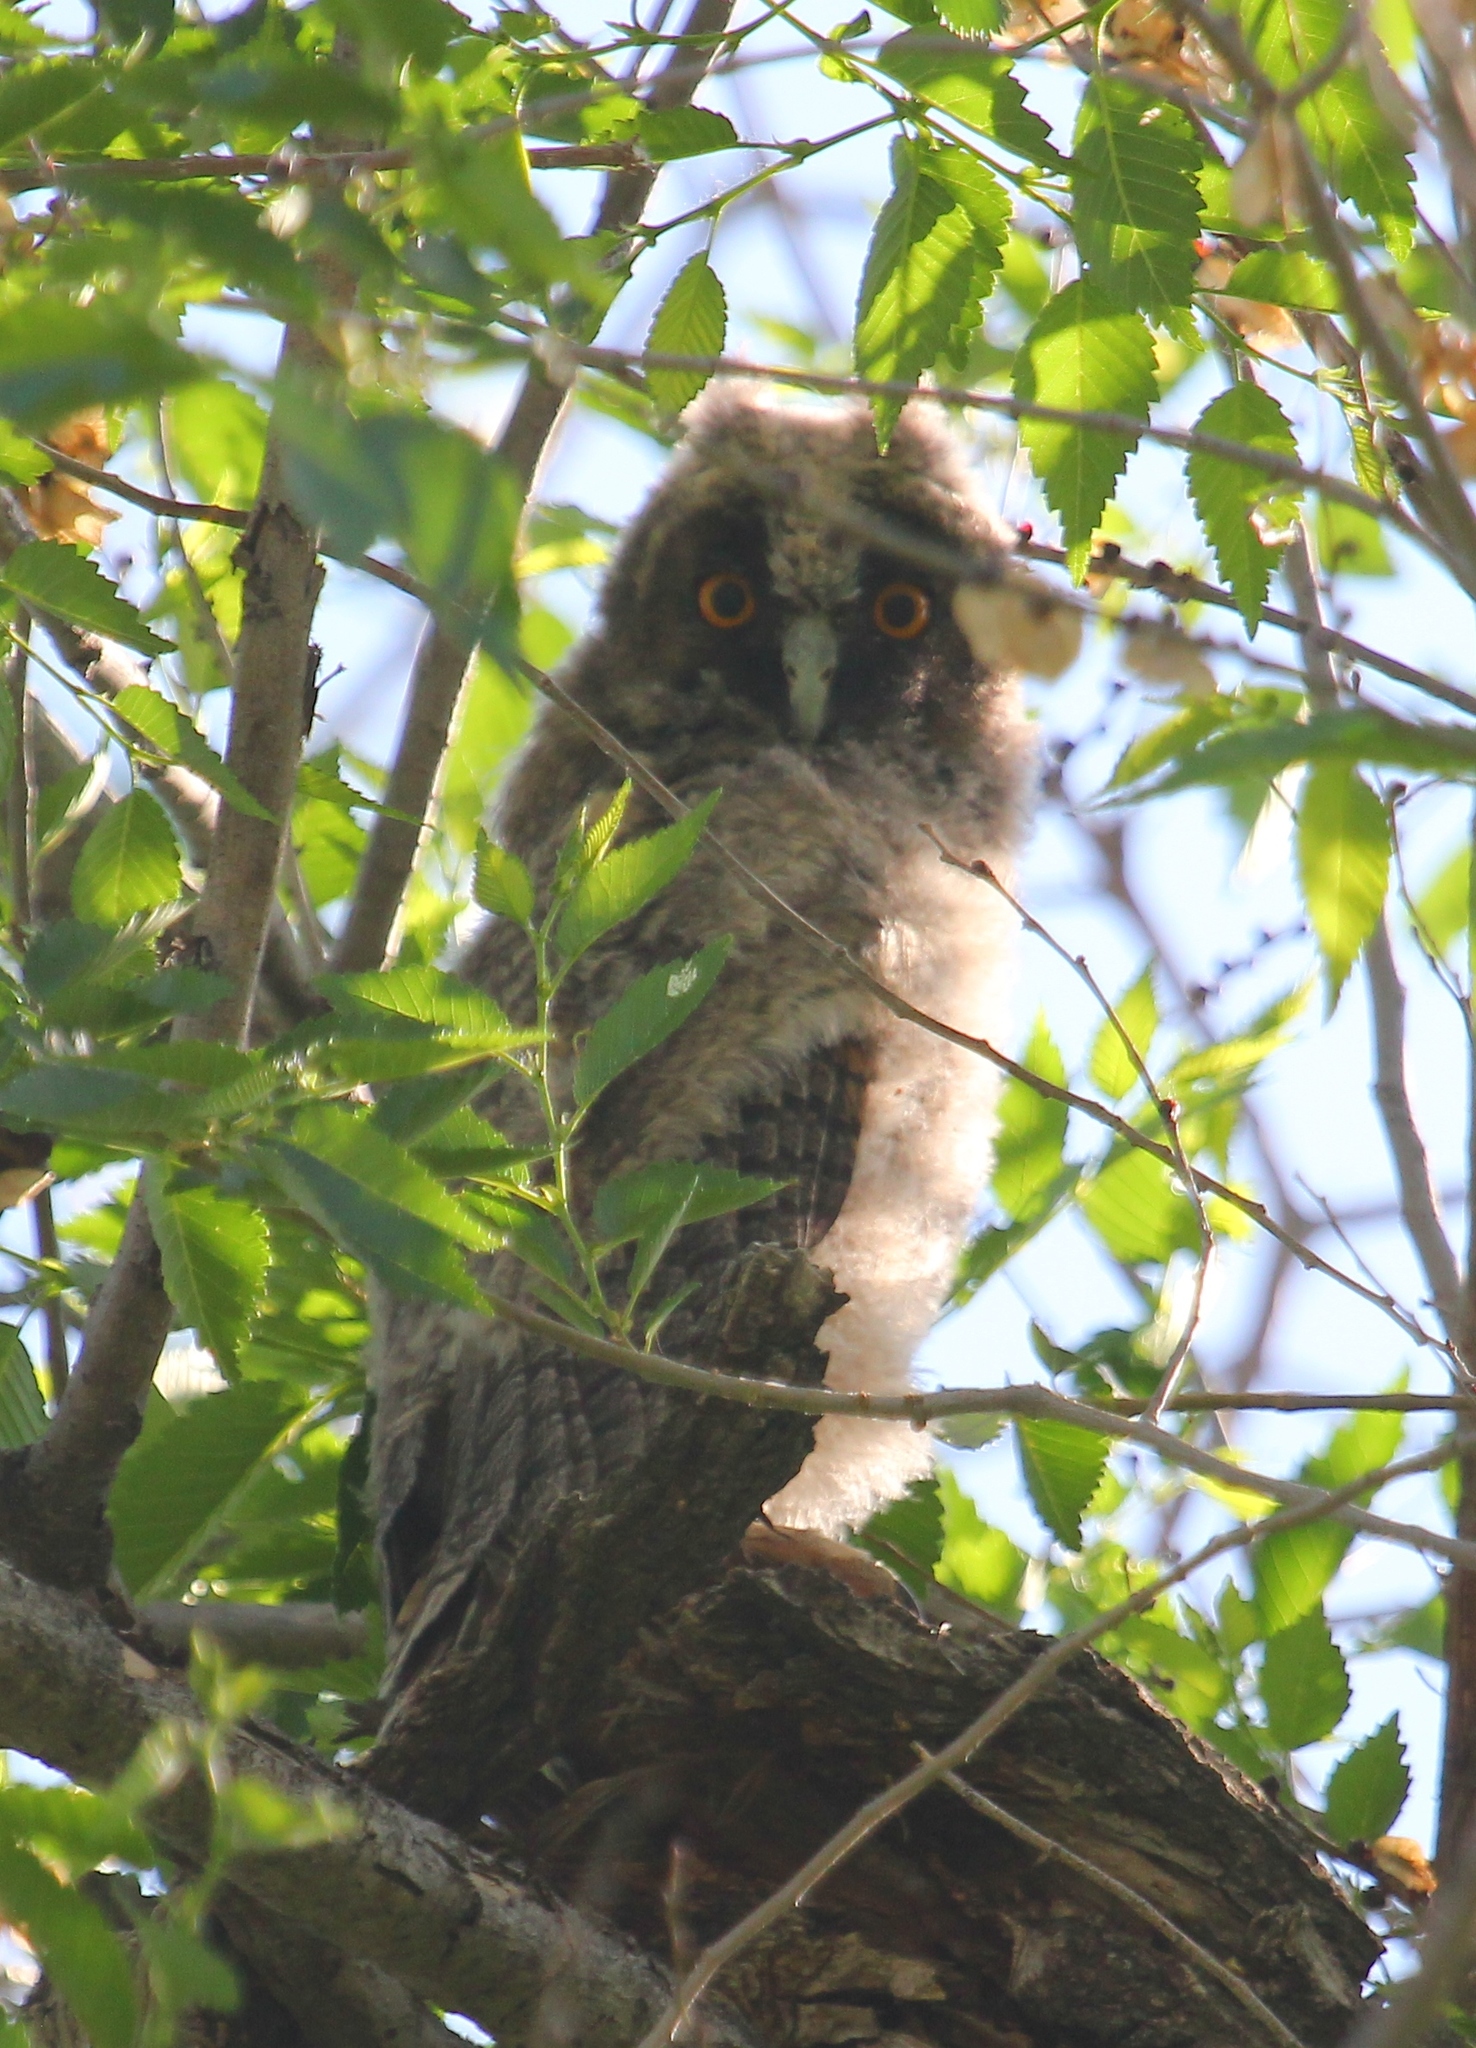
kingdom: Animalia
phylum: Chordata
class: Aves
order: Strigiformes
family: Strigidae
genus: Asio
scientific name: Asio otus
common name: Long-eared owl
